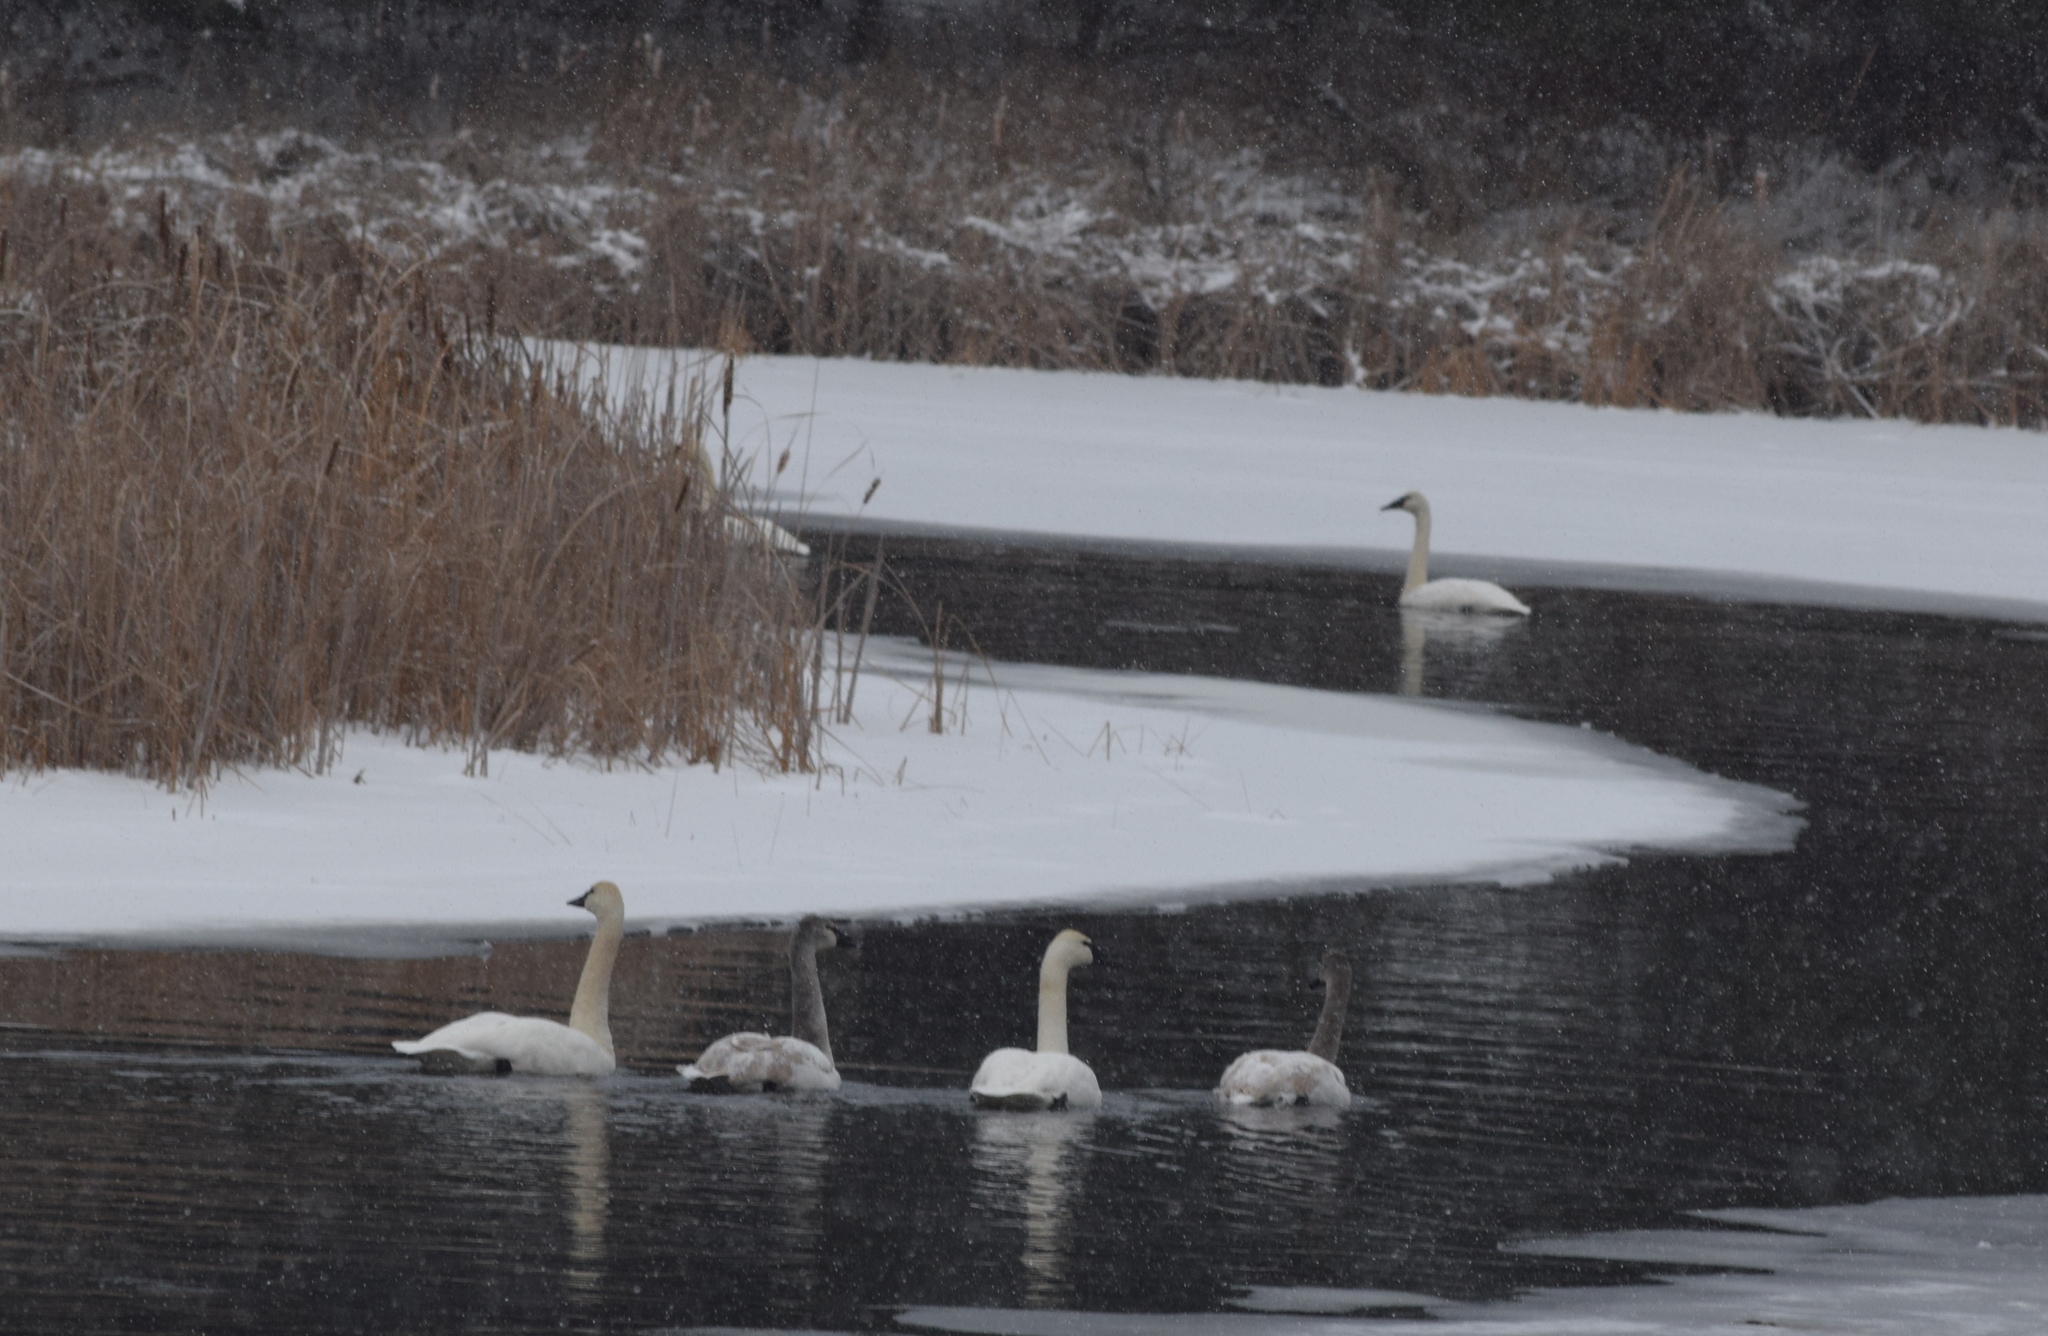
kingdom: Animalia
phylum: Chordata
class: Aves
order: Anseriformes
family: Anatidae
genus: Cygnus
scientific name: Cygnus buccinator
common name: Trumpeter swan
